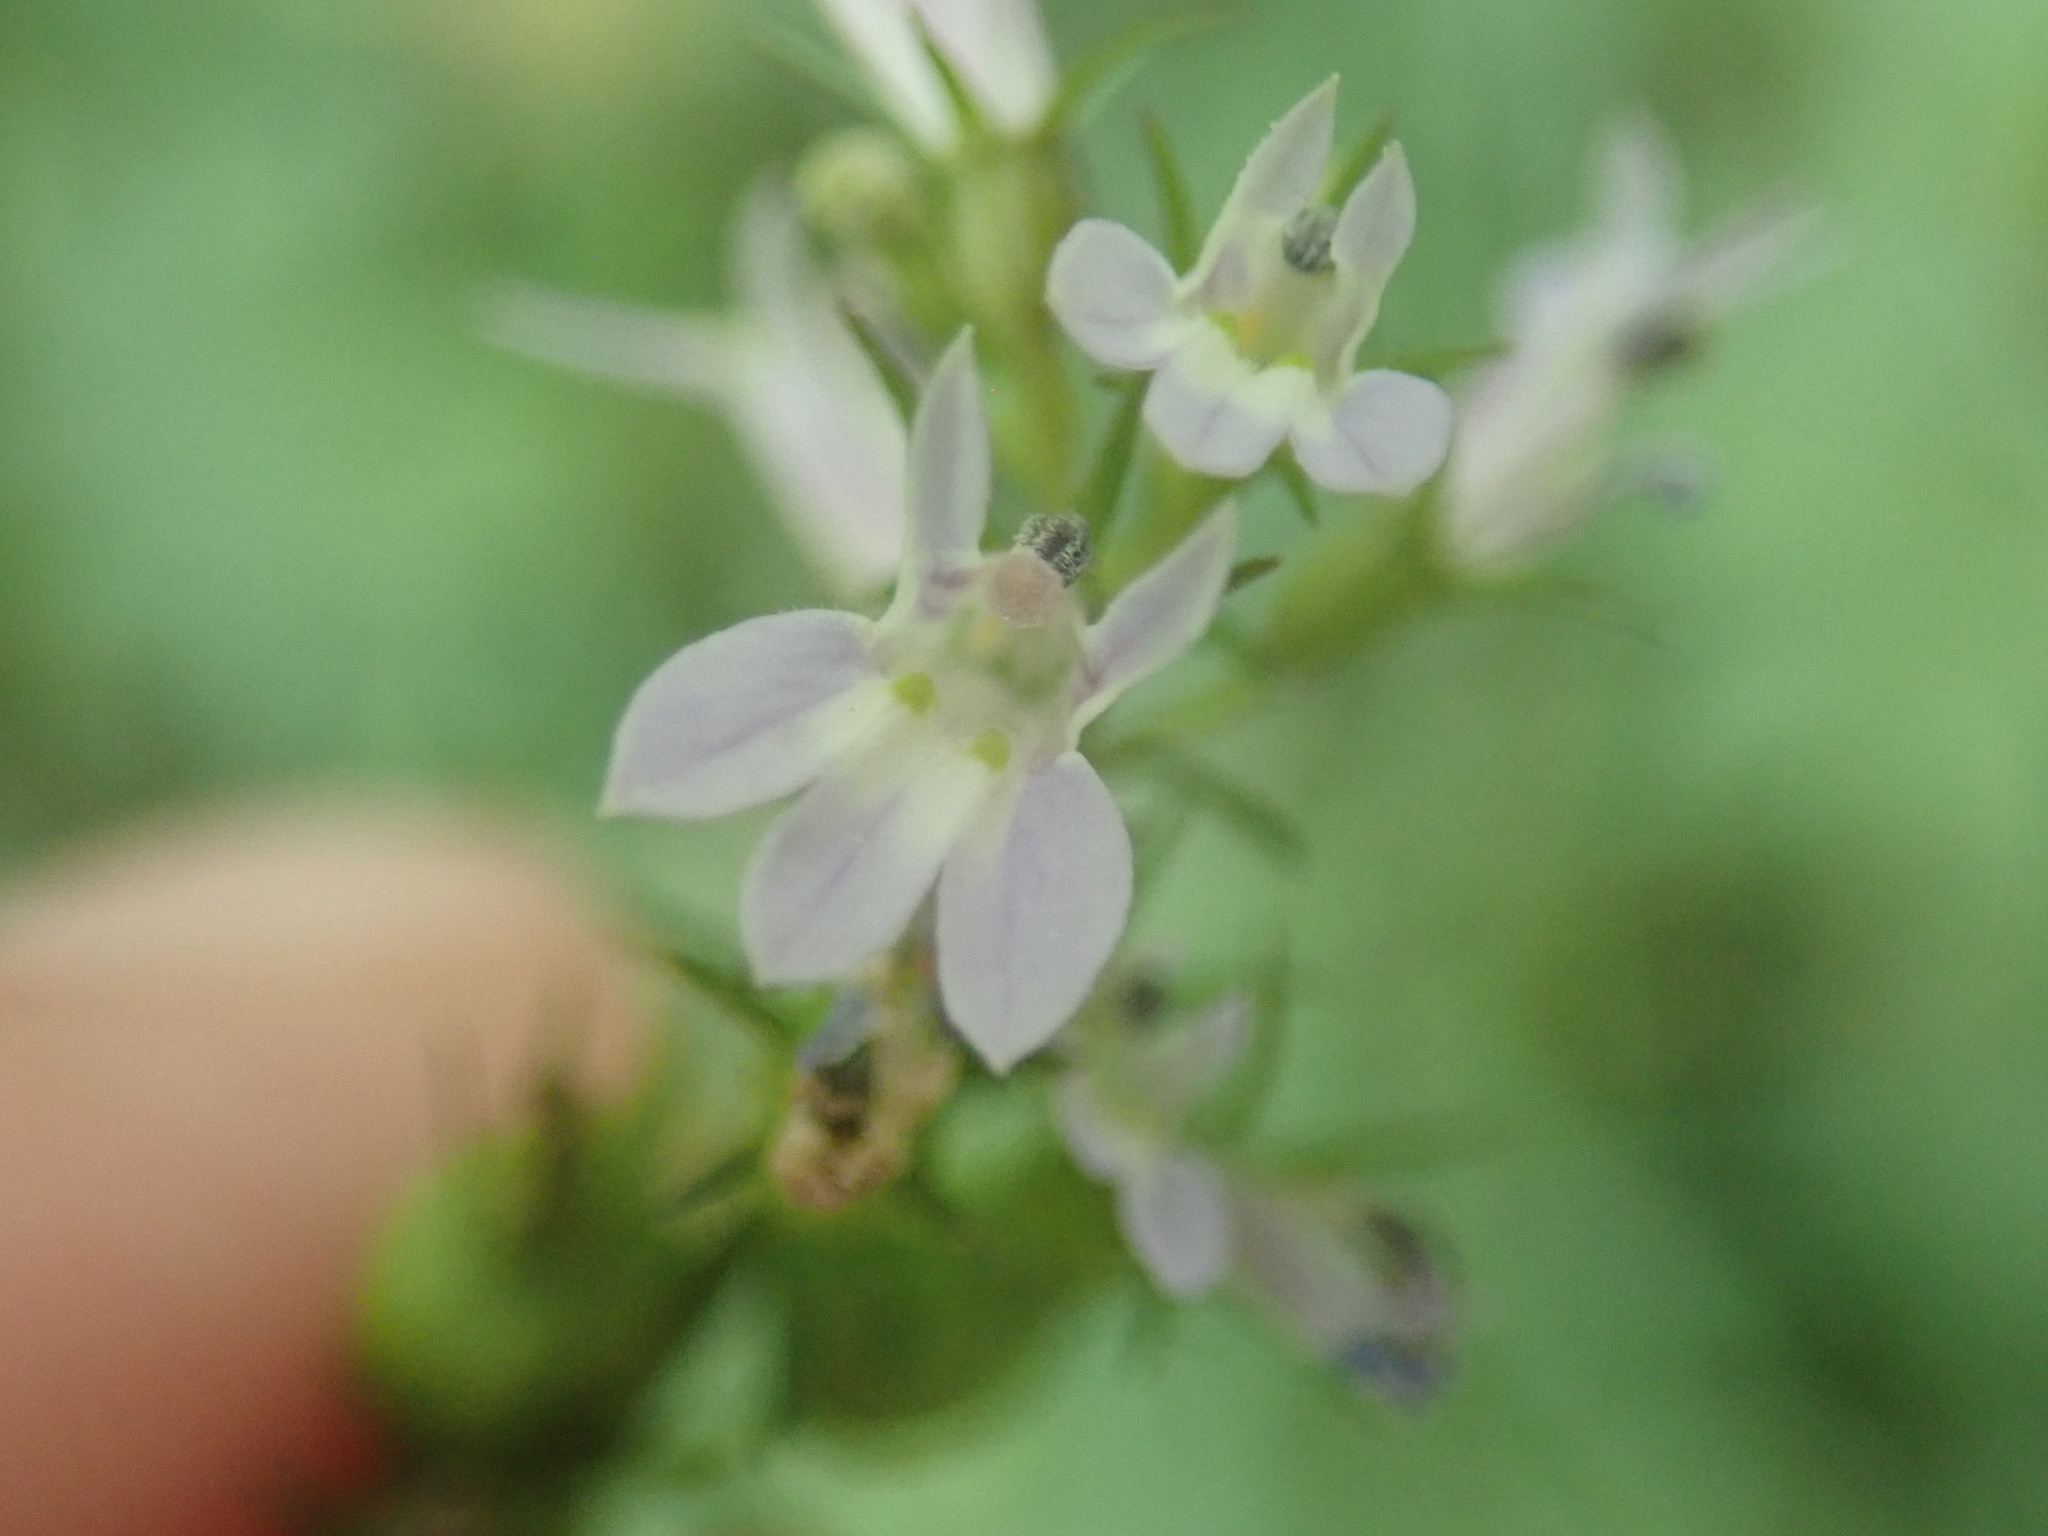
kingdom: Plantae
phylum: Tracheophyta
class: Magnoliopsida
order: Asterales
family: Campanulaceae
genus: Lobelia
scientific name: Lobelia inflata
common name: Indian tobacco
